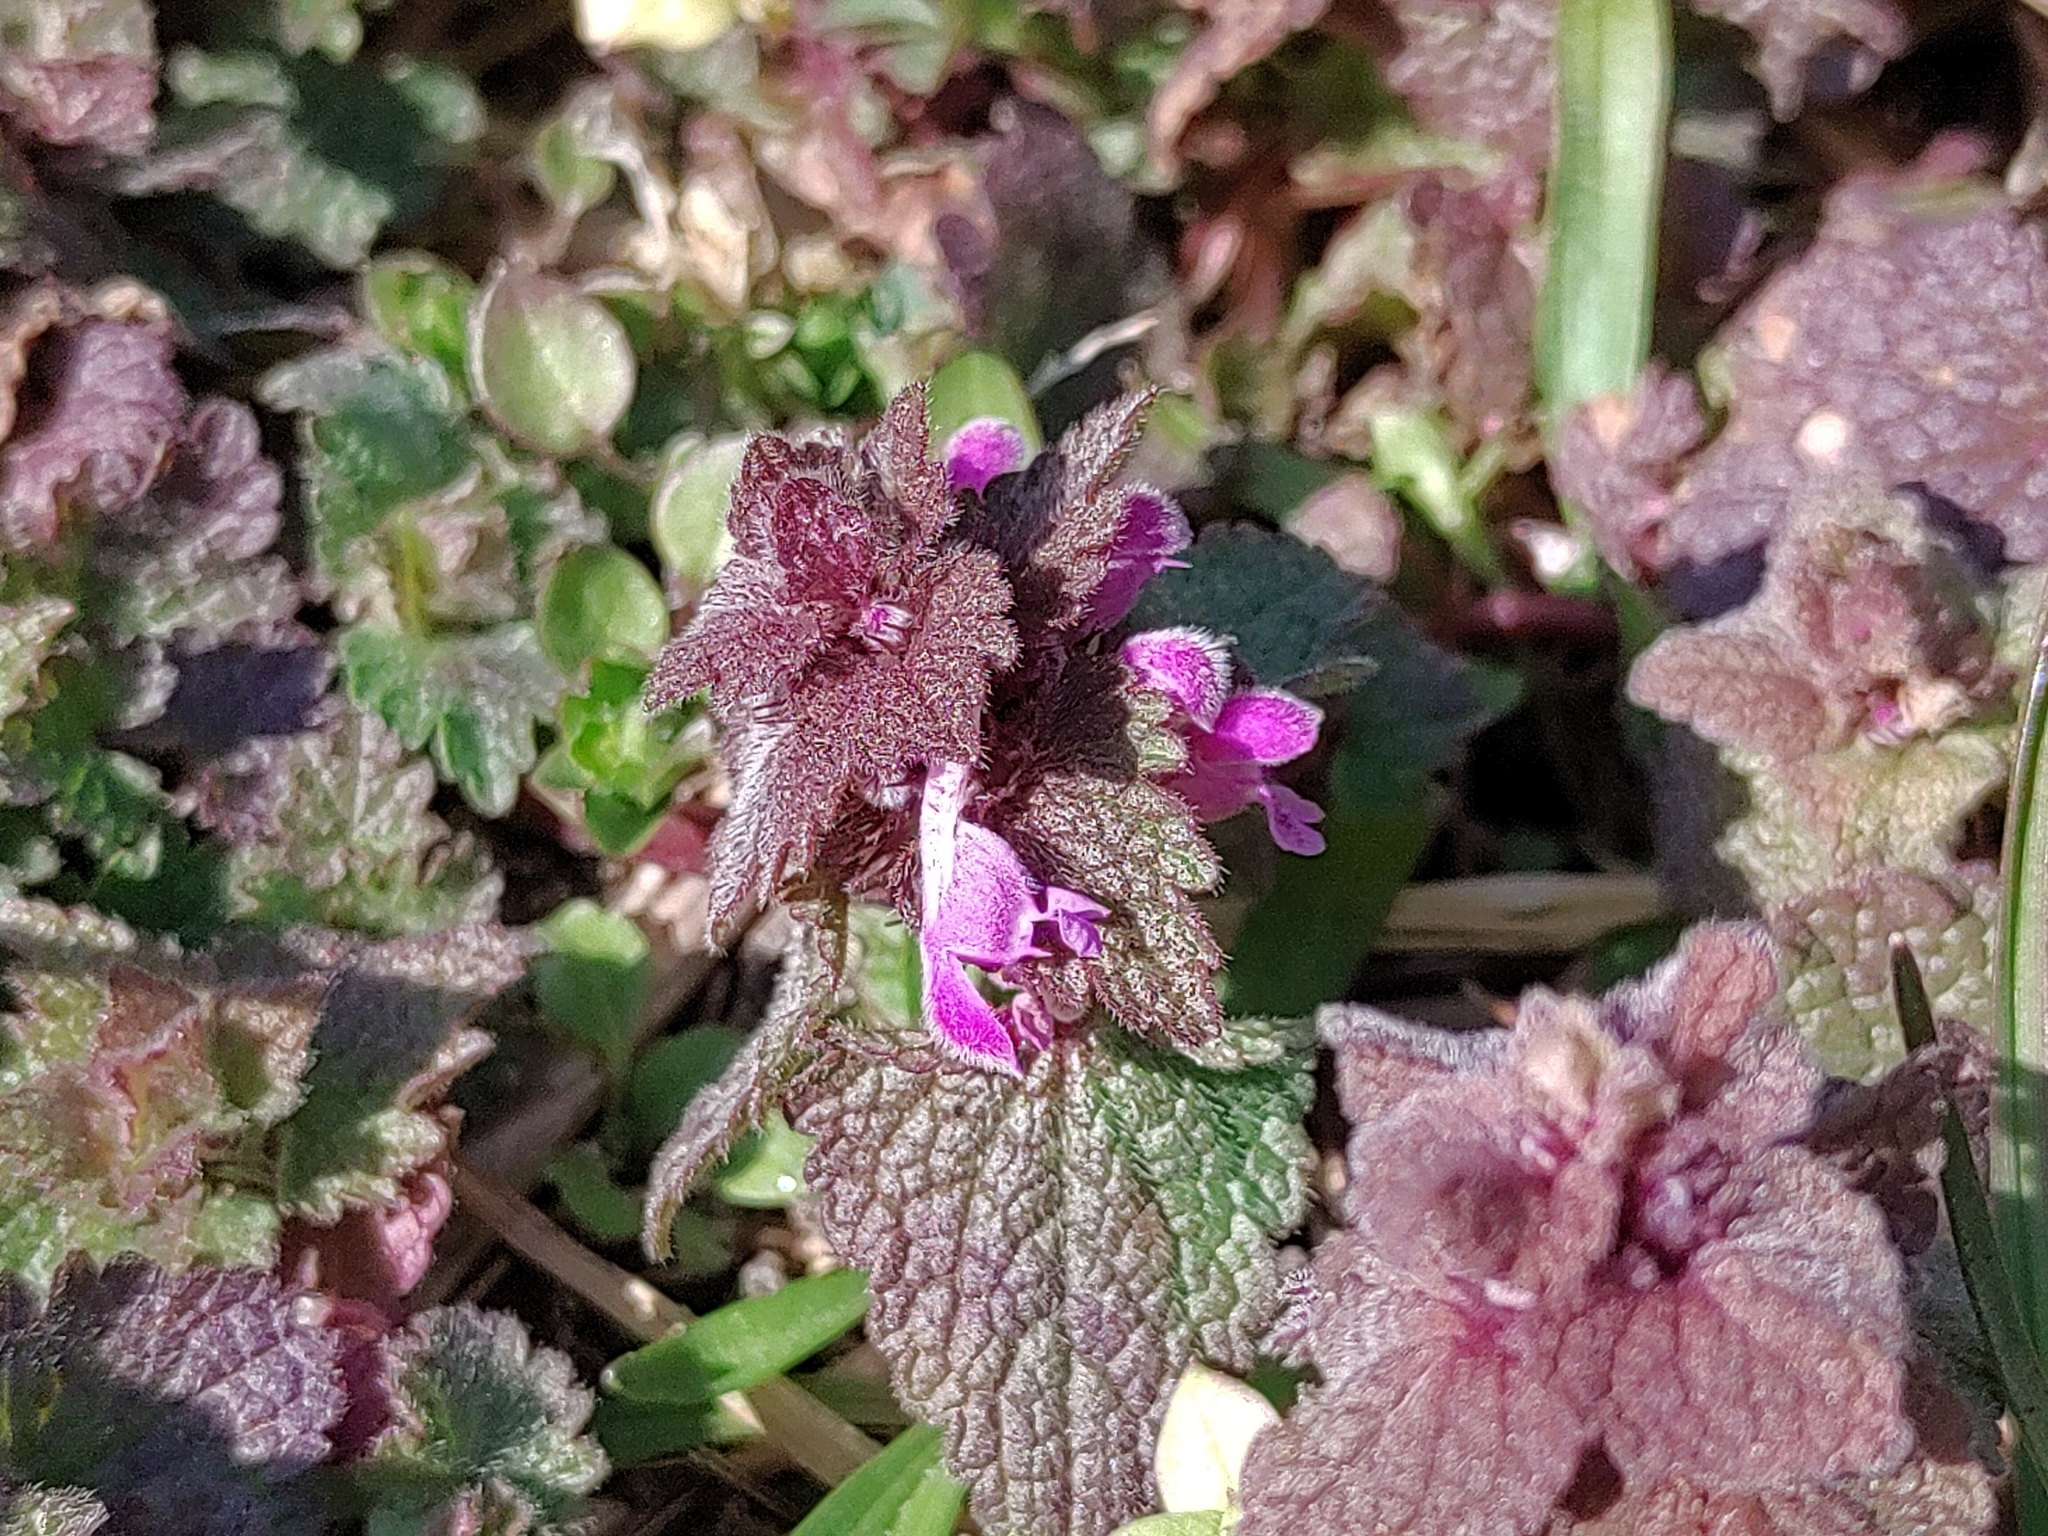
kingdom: Plantae
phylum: Tracheophyta
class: Magnoliopsida
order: Lamiales
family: Lamiaceae
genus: Lamium
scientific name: Lamium purpureum
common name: Red dead-nettle
